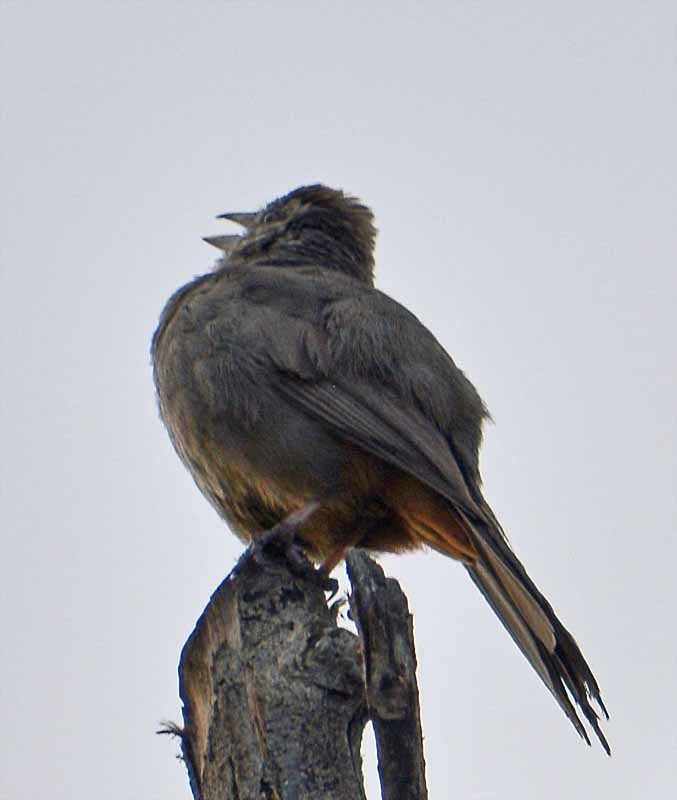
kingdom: Animalia
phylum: Chordata
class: Aves
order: Passeriformes
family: Passerellidae
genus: Melozone
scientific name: Melozone fusca
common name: Canyon towhee
